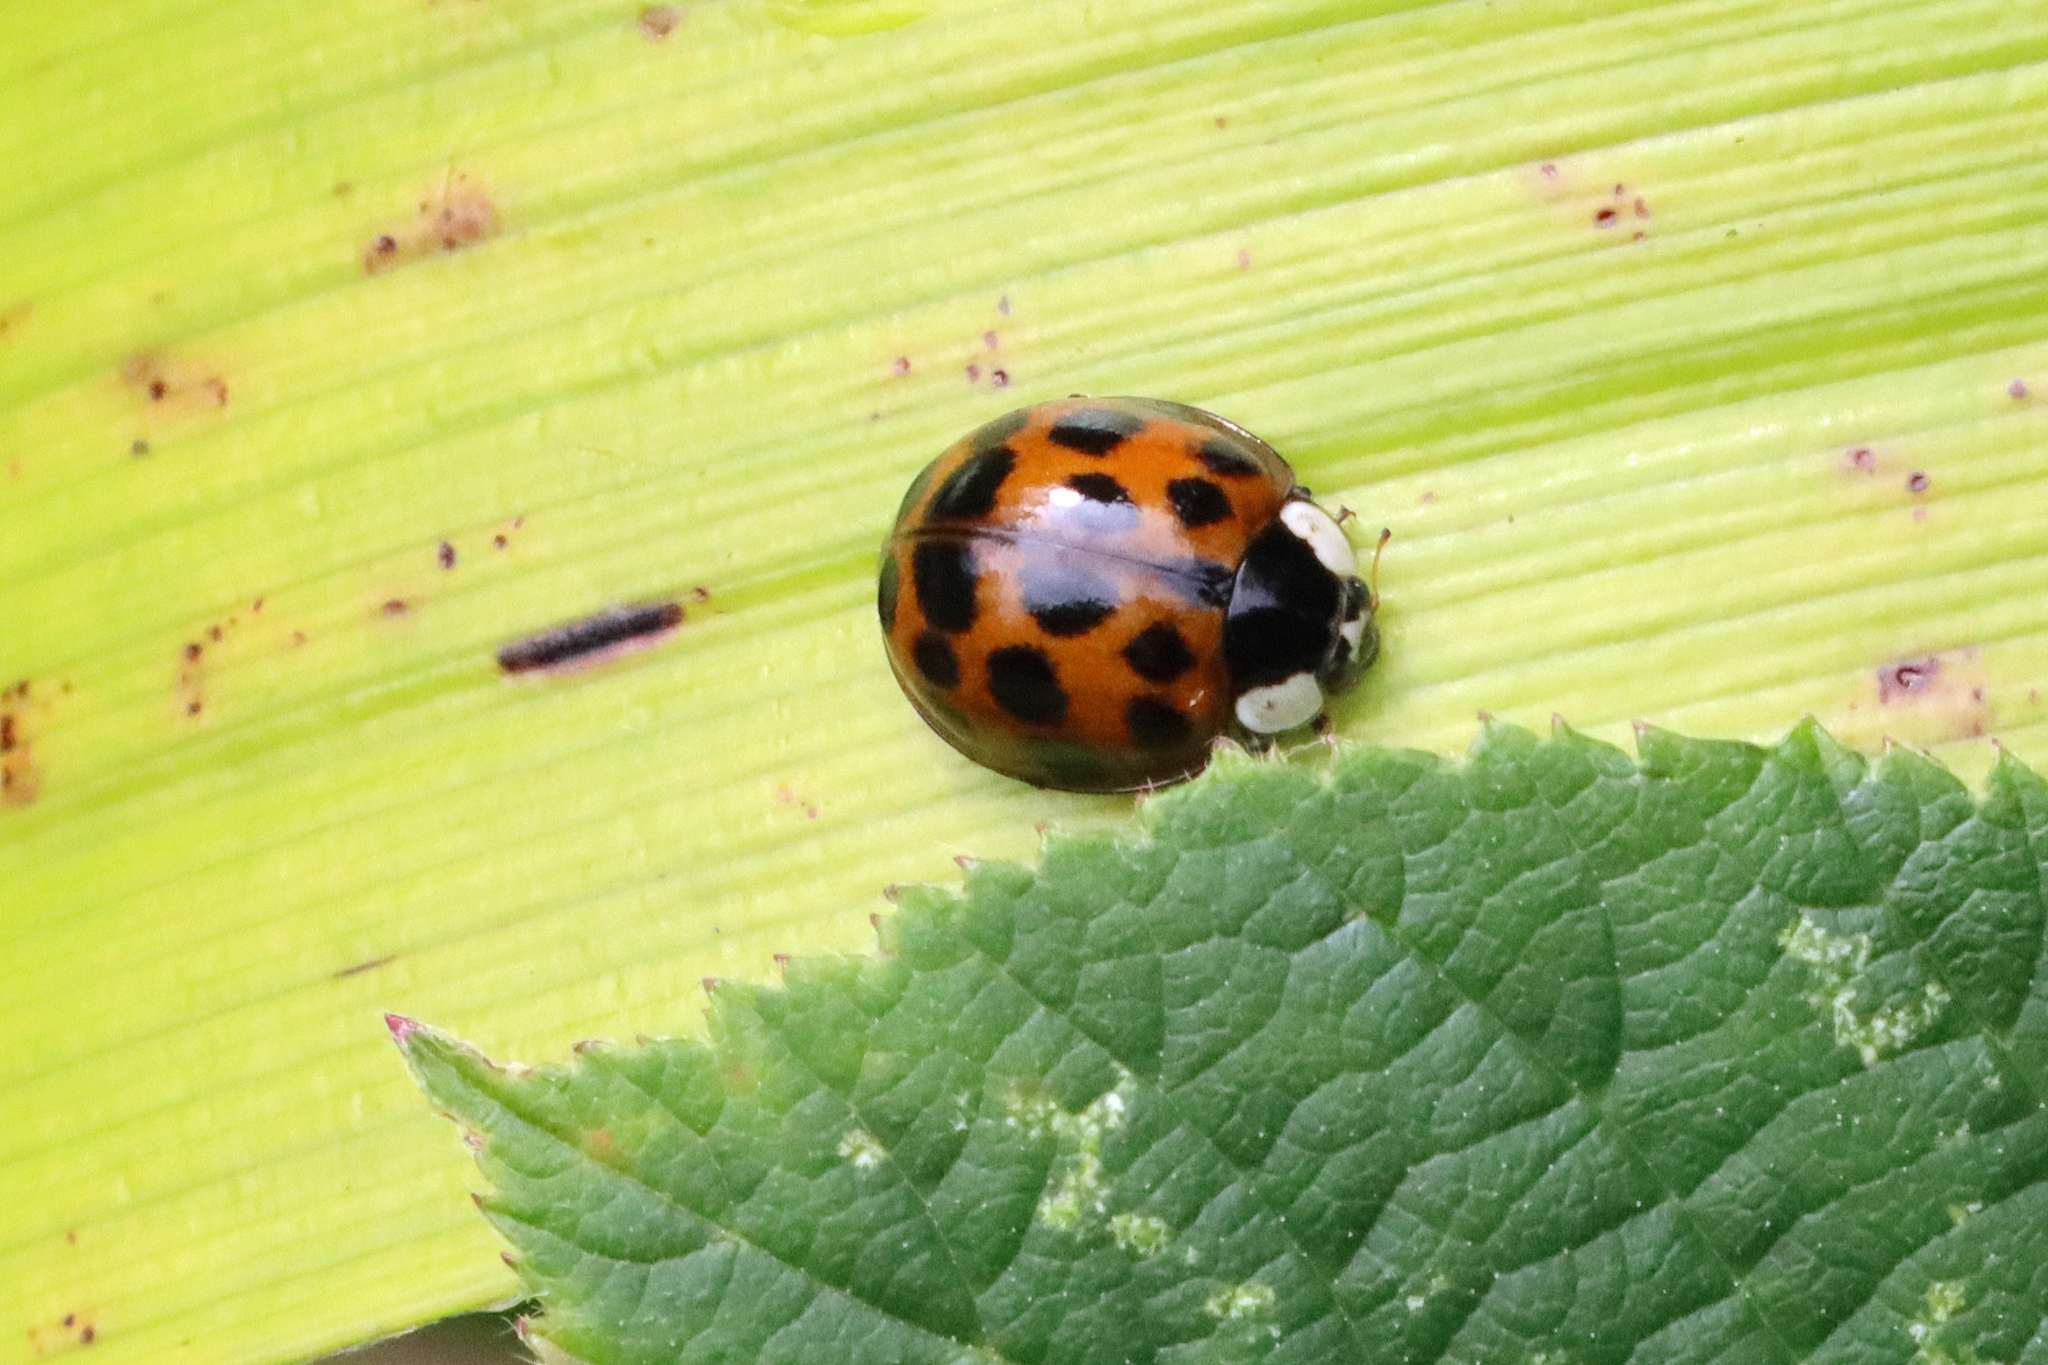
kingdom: Animalia
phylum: Arthropoda
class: Insecta
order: Coleoptera
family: Coccinellidae
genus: Harmonia
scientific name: Harmonia axyridis
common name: Harlequin ladybird
